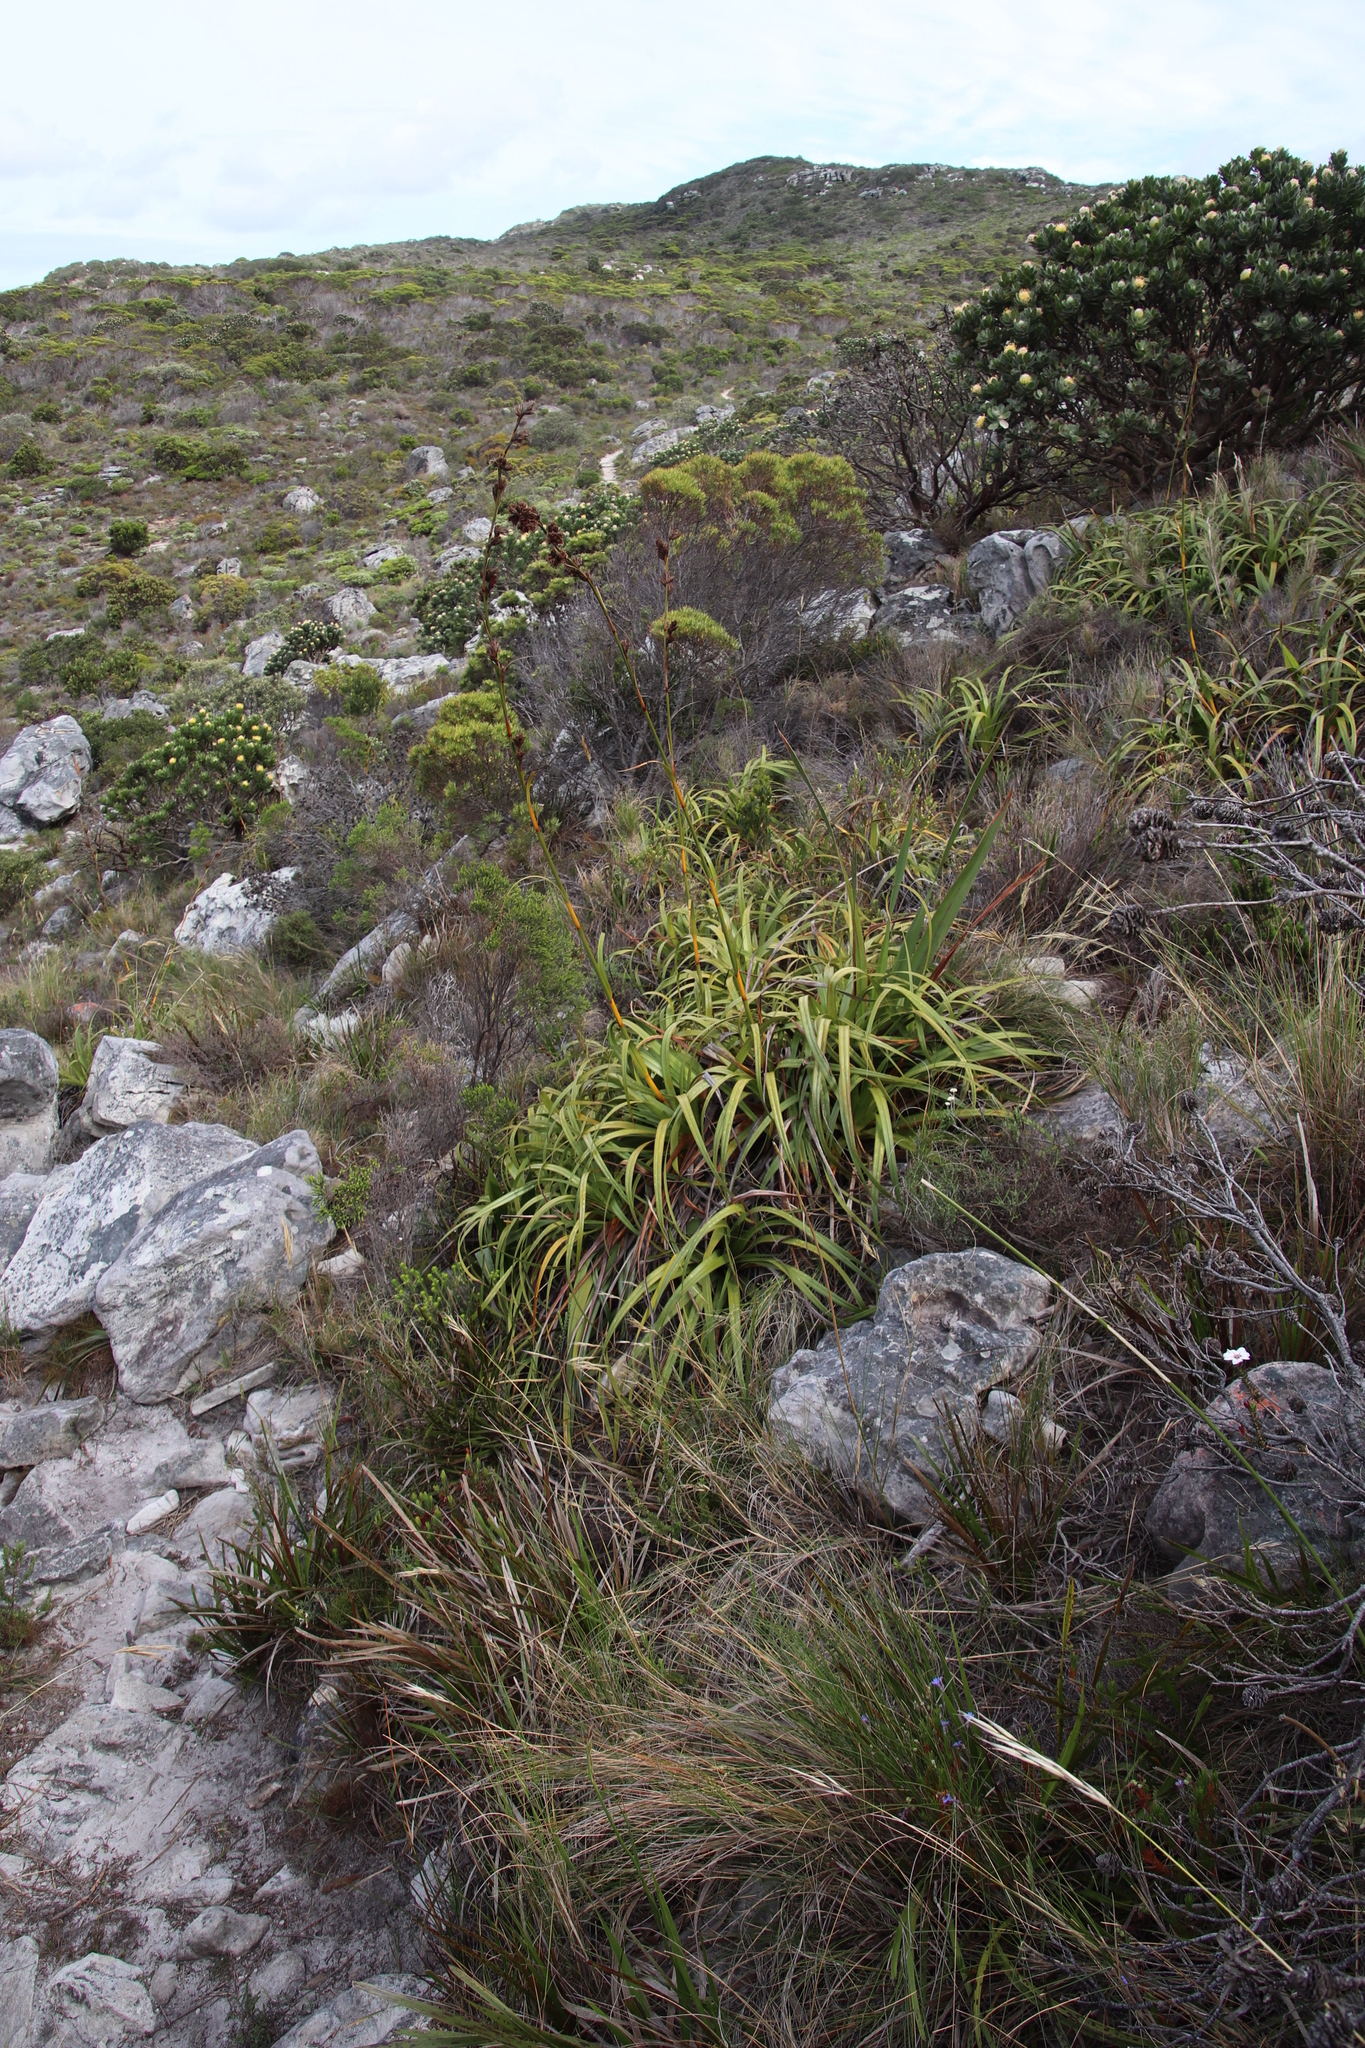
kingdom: Plantae
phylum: Tracheophyta
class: Liliopsida
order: Poales
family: Cyperaceae
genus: Tetraria
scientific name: Tetraria thermalis
